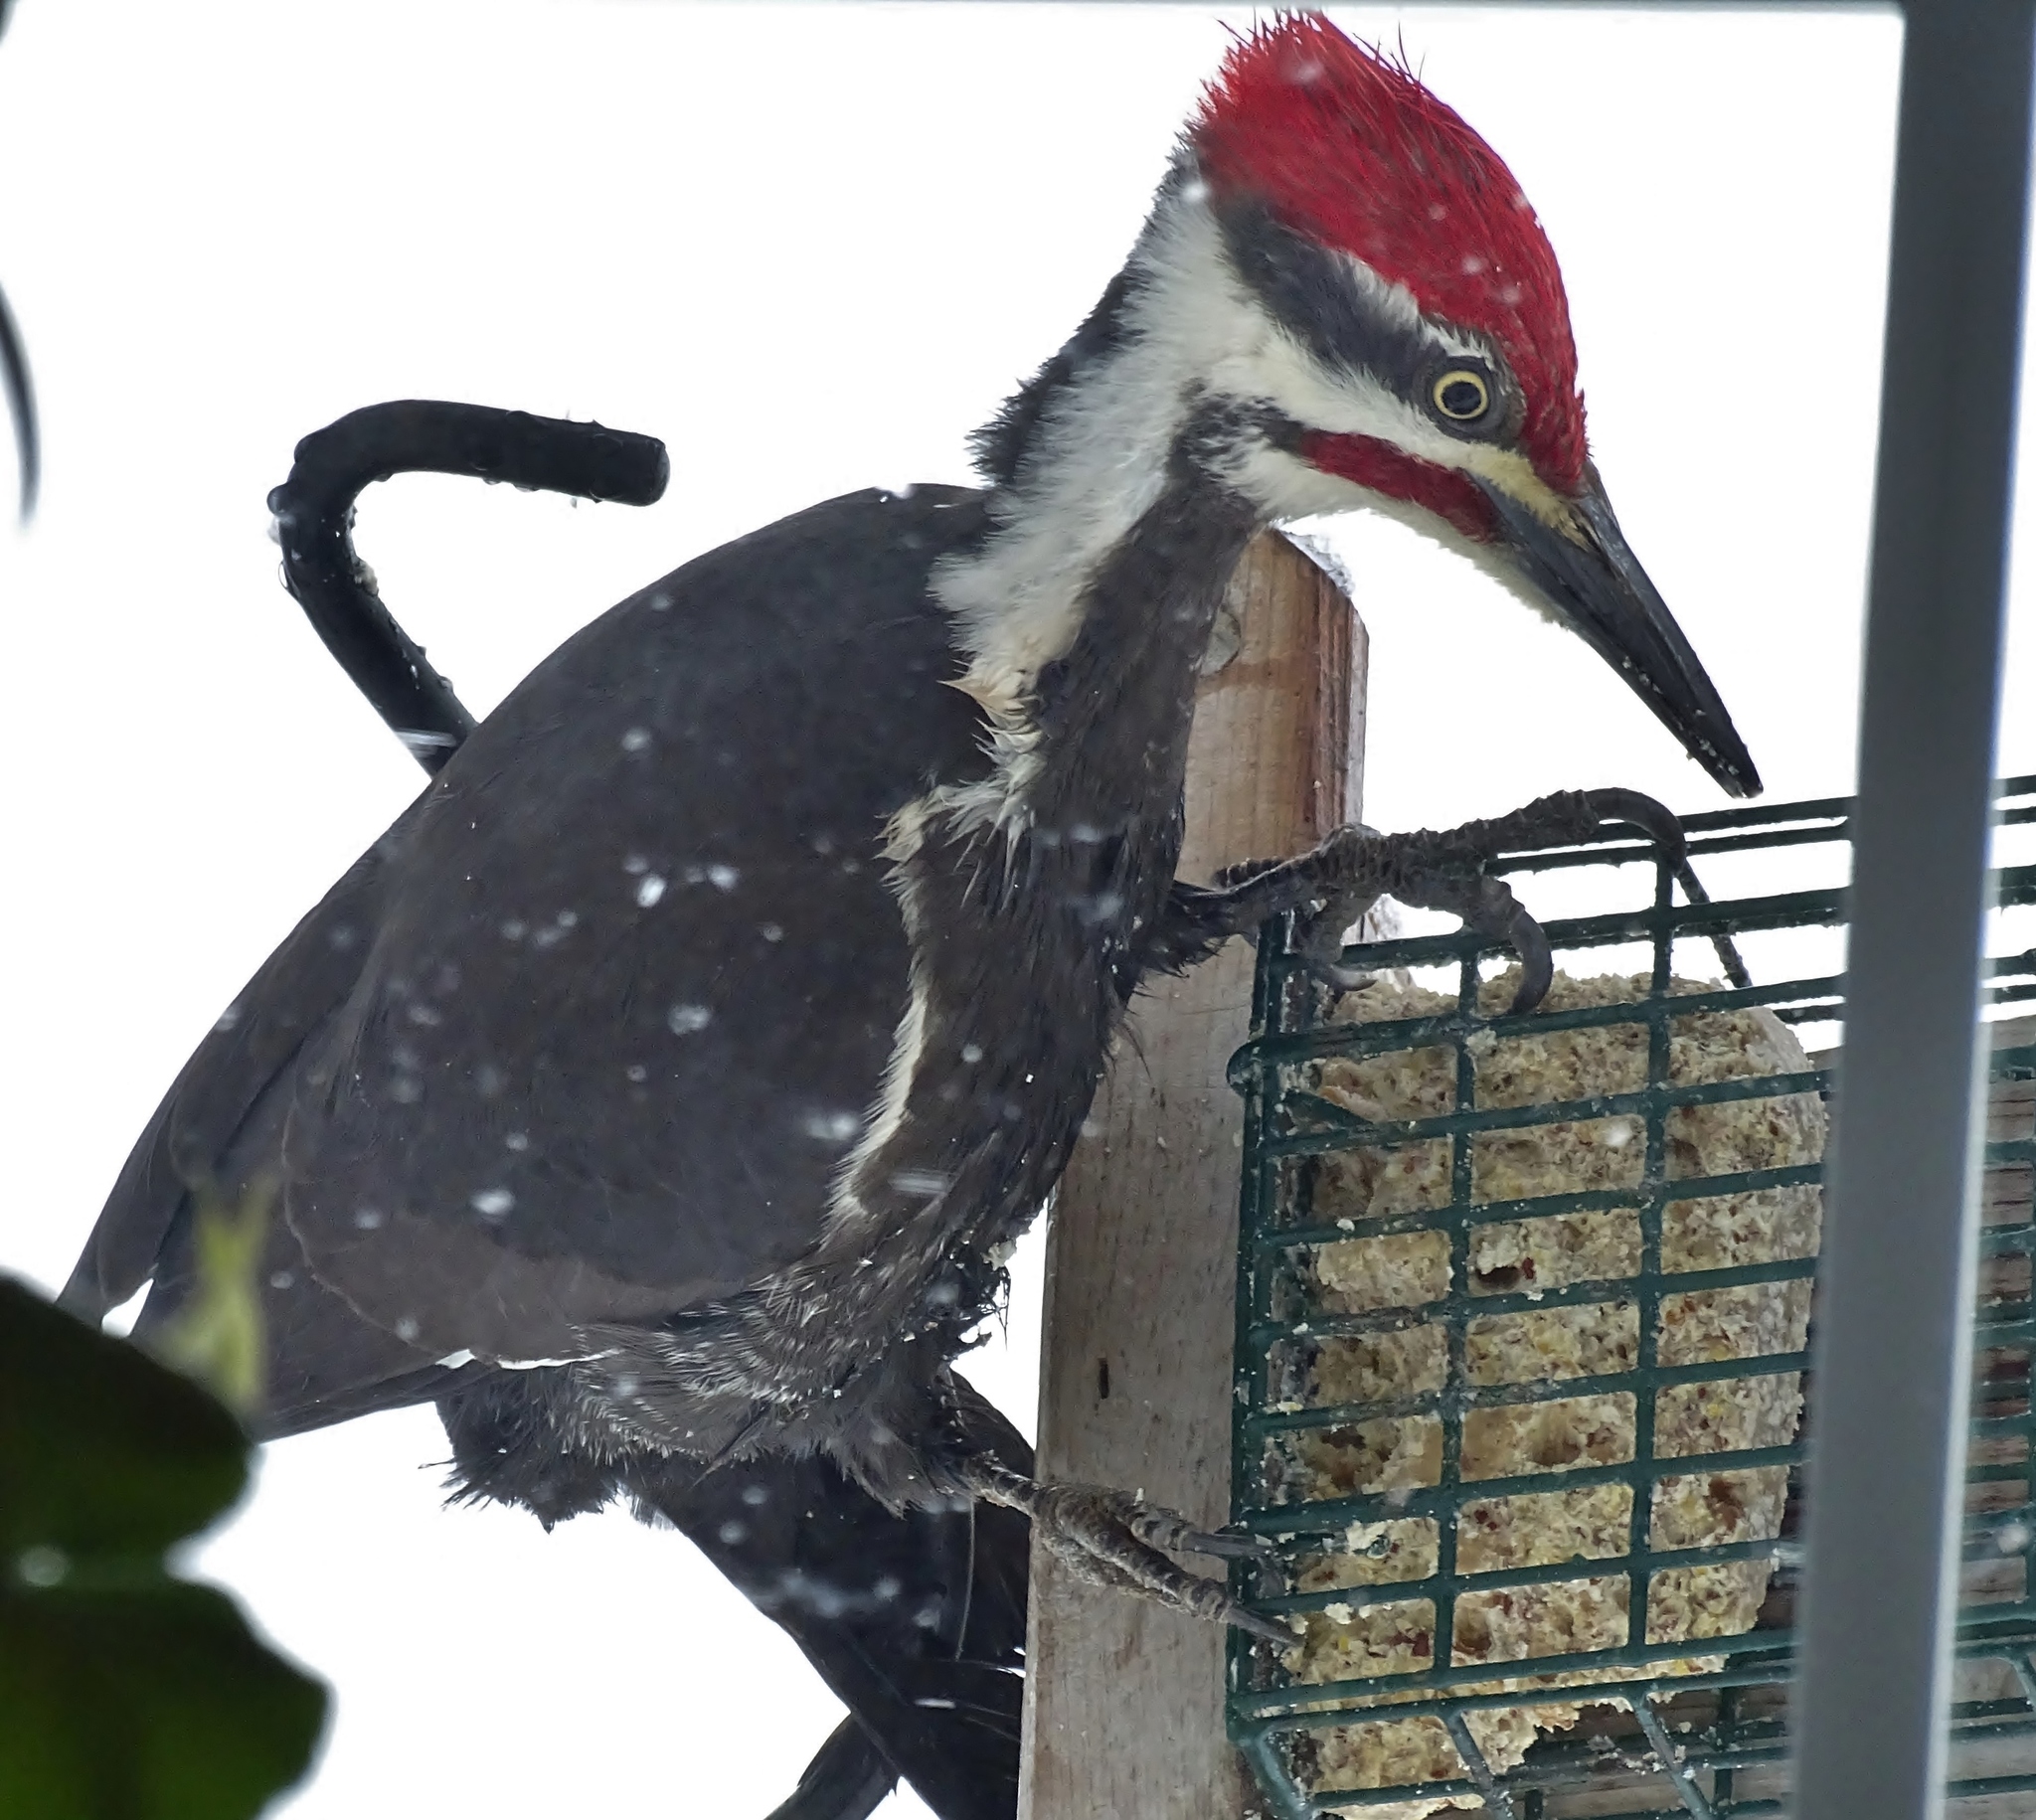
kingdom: Animalia
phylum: Chordata
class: Aves
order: Piciformes
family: Picidae
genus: Dryocopus
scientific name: Dryocopus pileatus
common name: Pileated woodpecker
